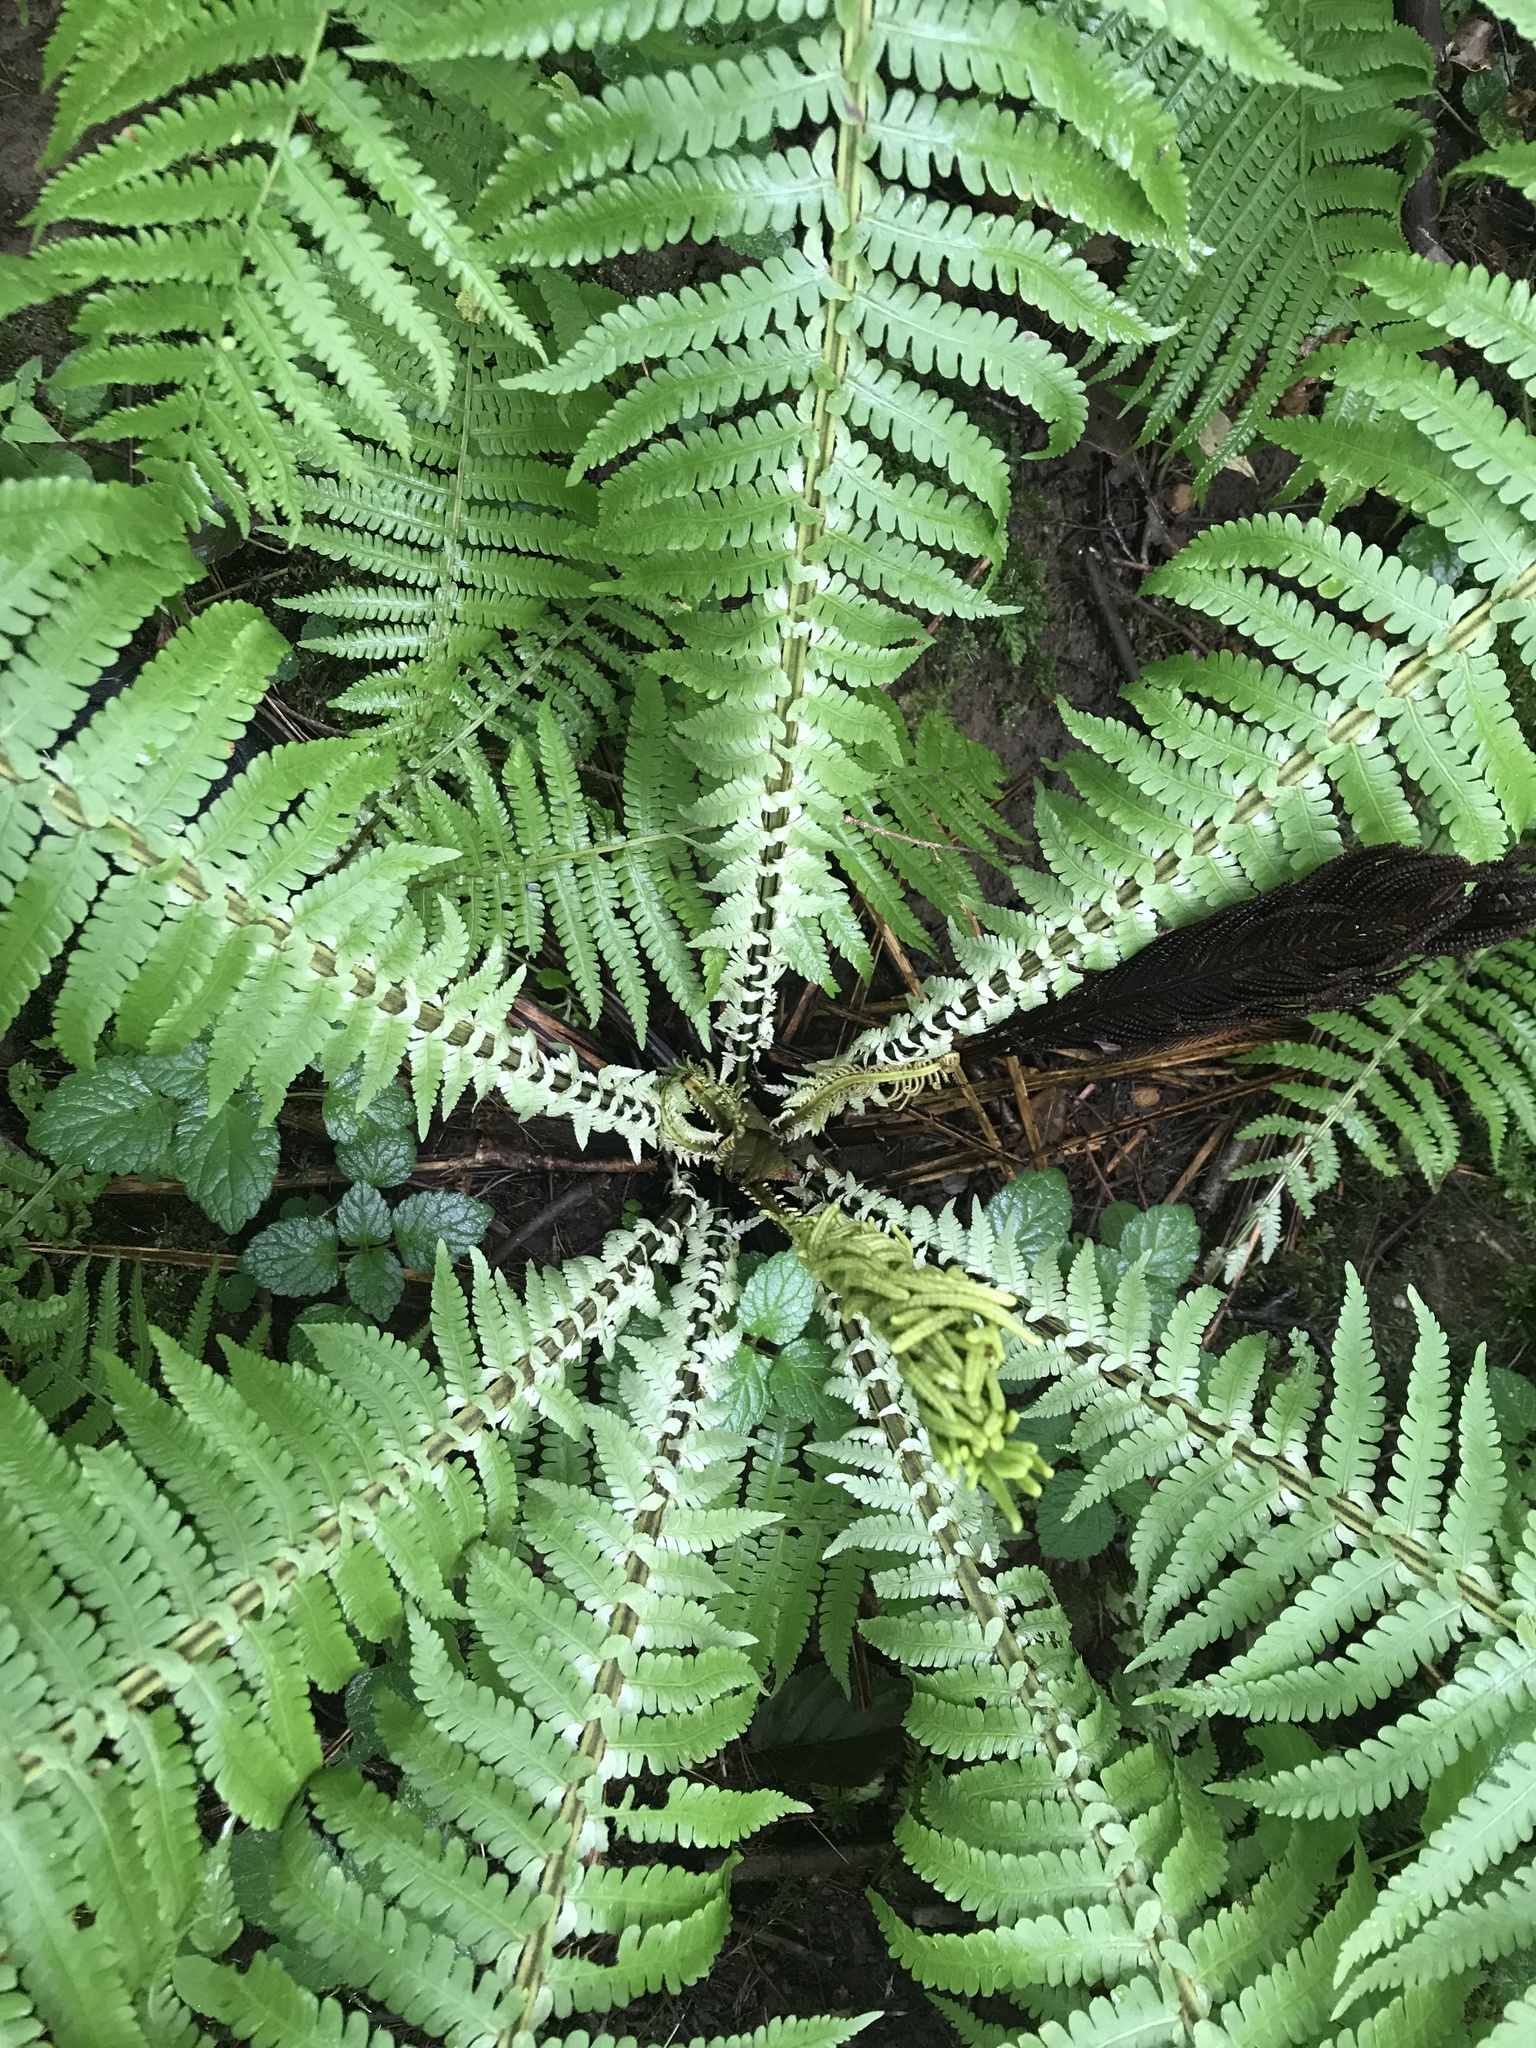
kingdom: Plantae
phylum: Tracheophyta
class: Polypodiopsida
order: Polypodiales
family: Onocleaceae
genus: Matteuccia
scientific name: Matteuccia struthiopteris
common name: Ostrich fern
